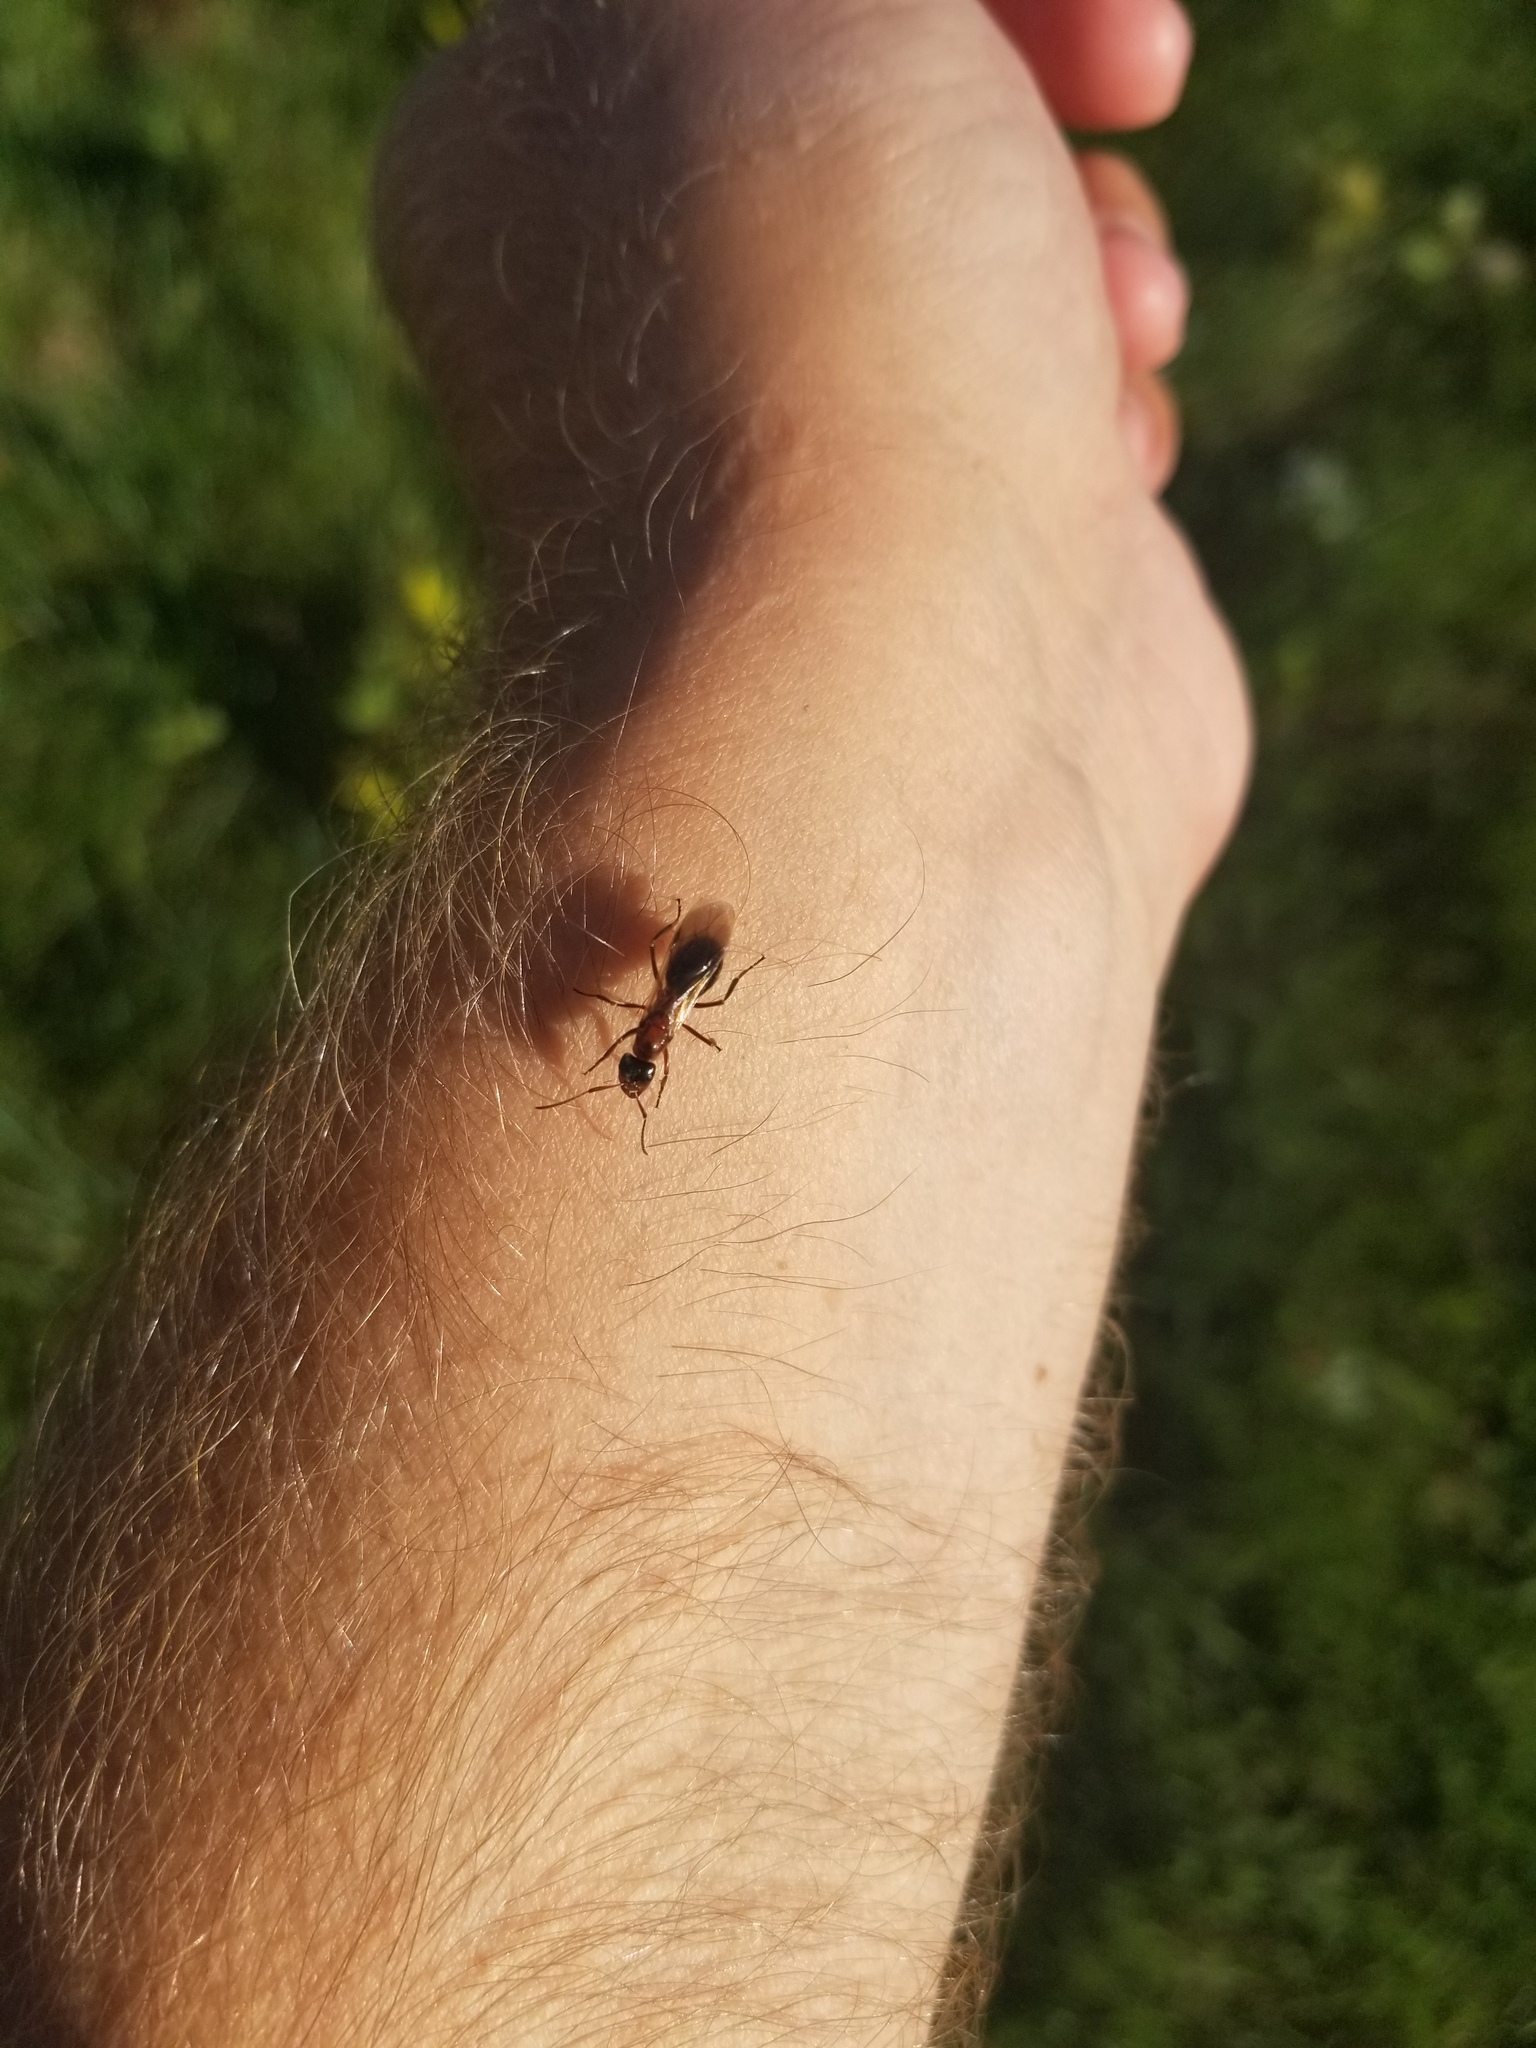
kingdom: Animalia
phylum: Arthropoda
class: Insecta
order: Hymenoptera
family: Formicidae
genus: Formica
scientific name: Formica ulkei
